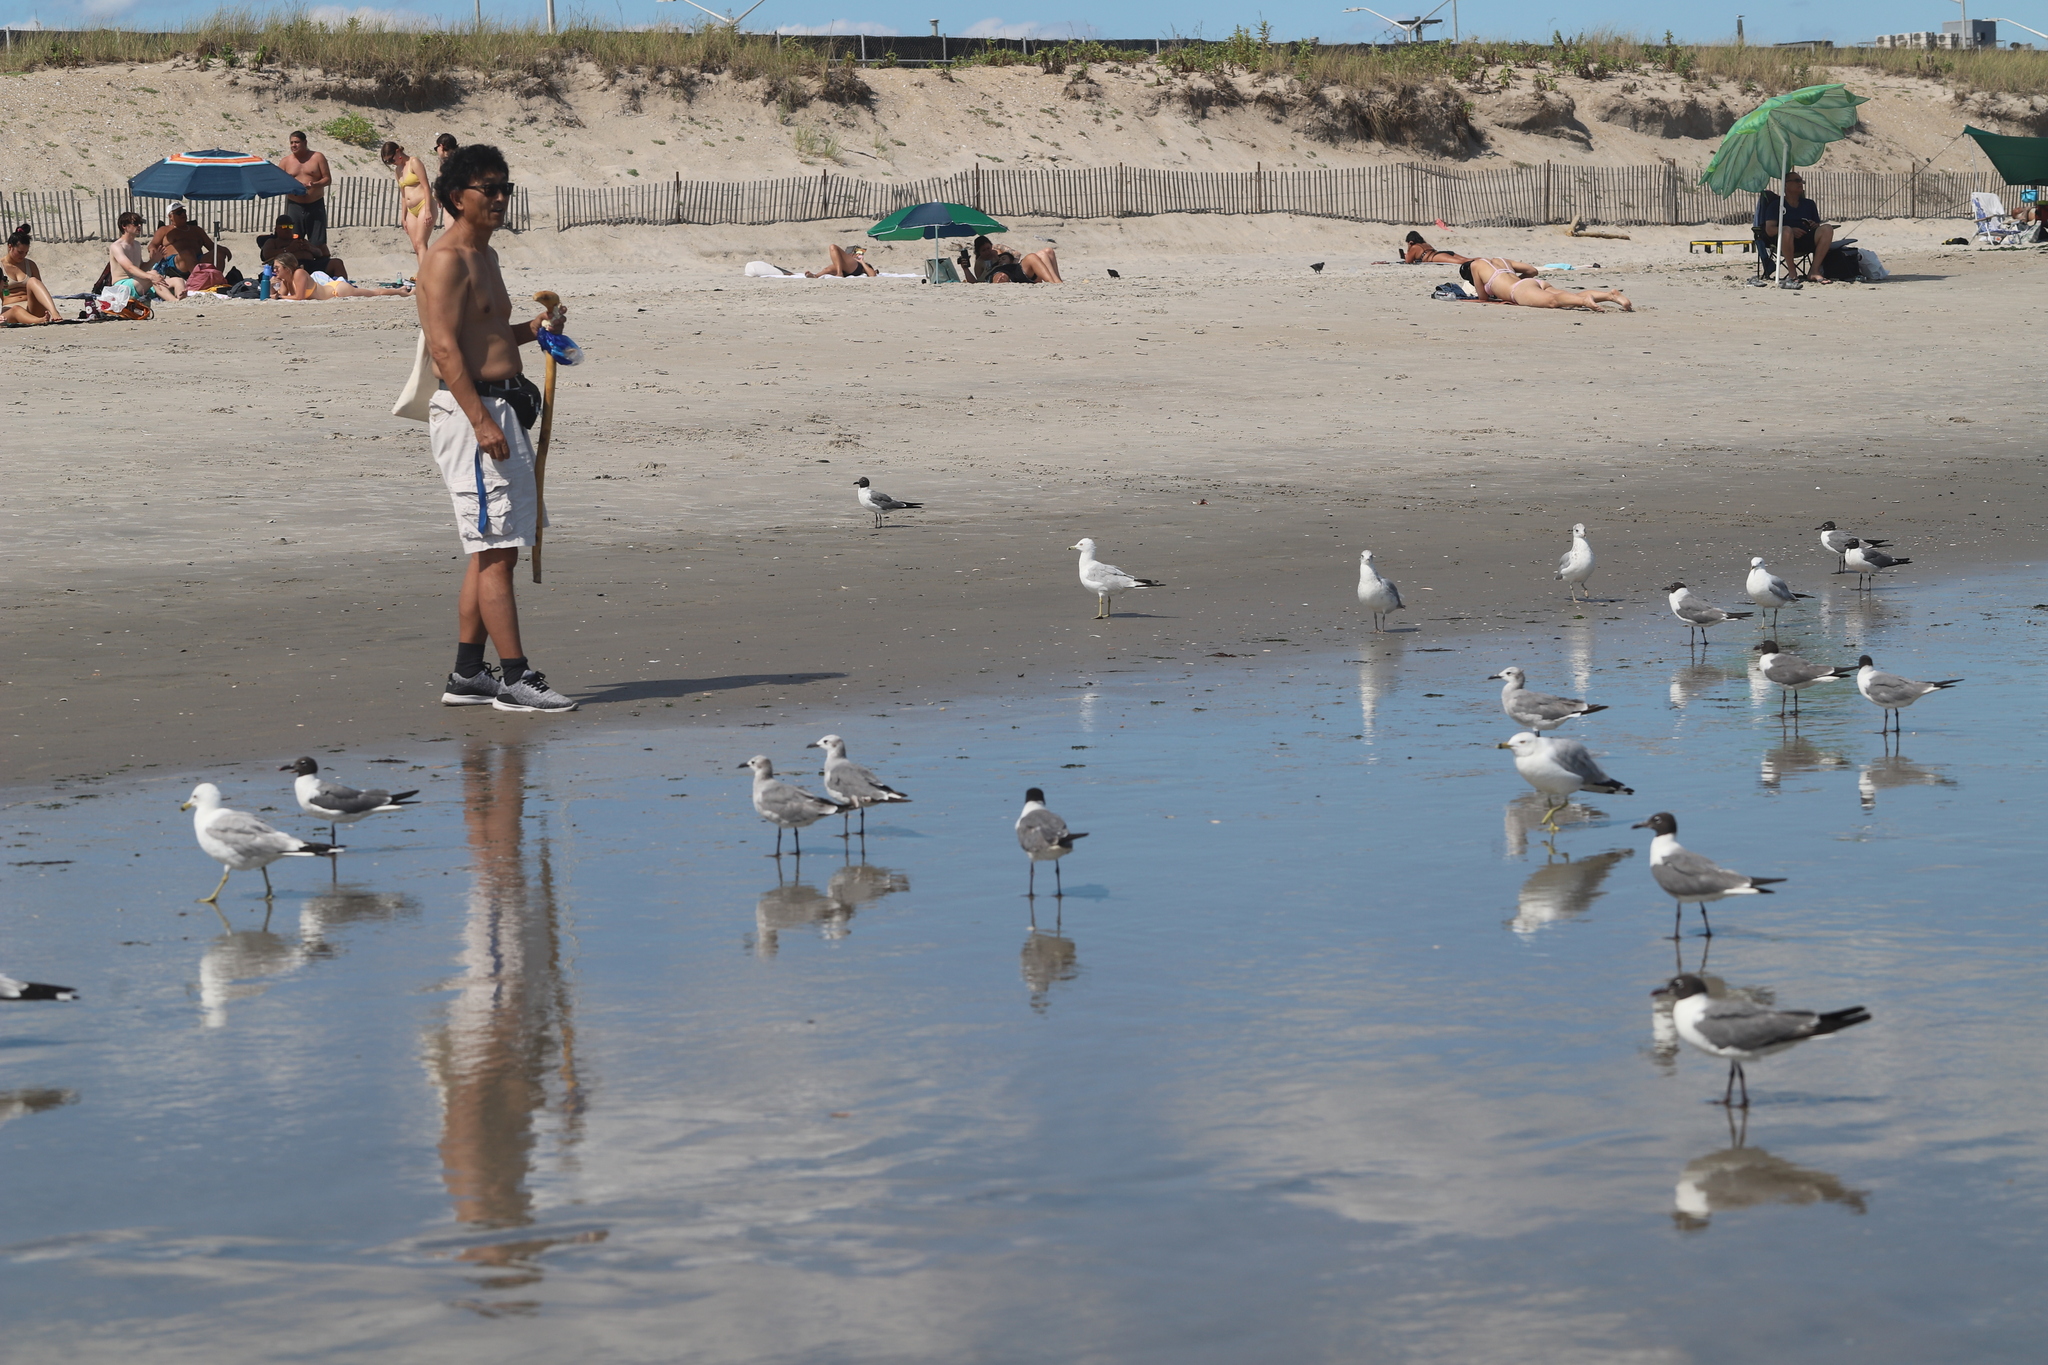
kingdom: Animalia
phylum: Chordata
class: Aves
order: Charadriiformes
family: Laridae
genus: Leucophaeus
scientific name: Leucophaeus atricilla
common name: Laughing gull
